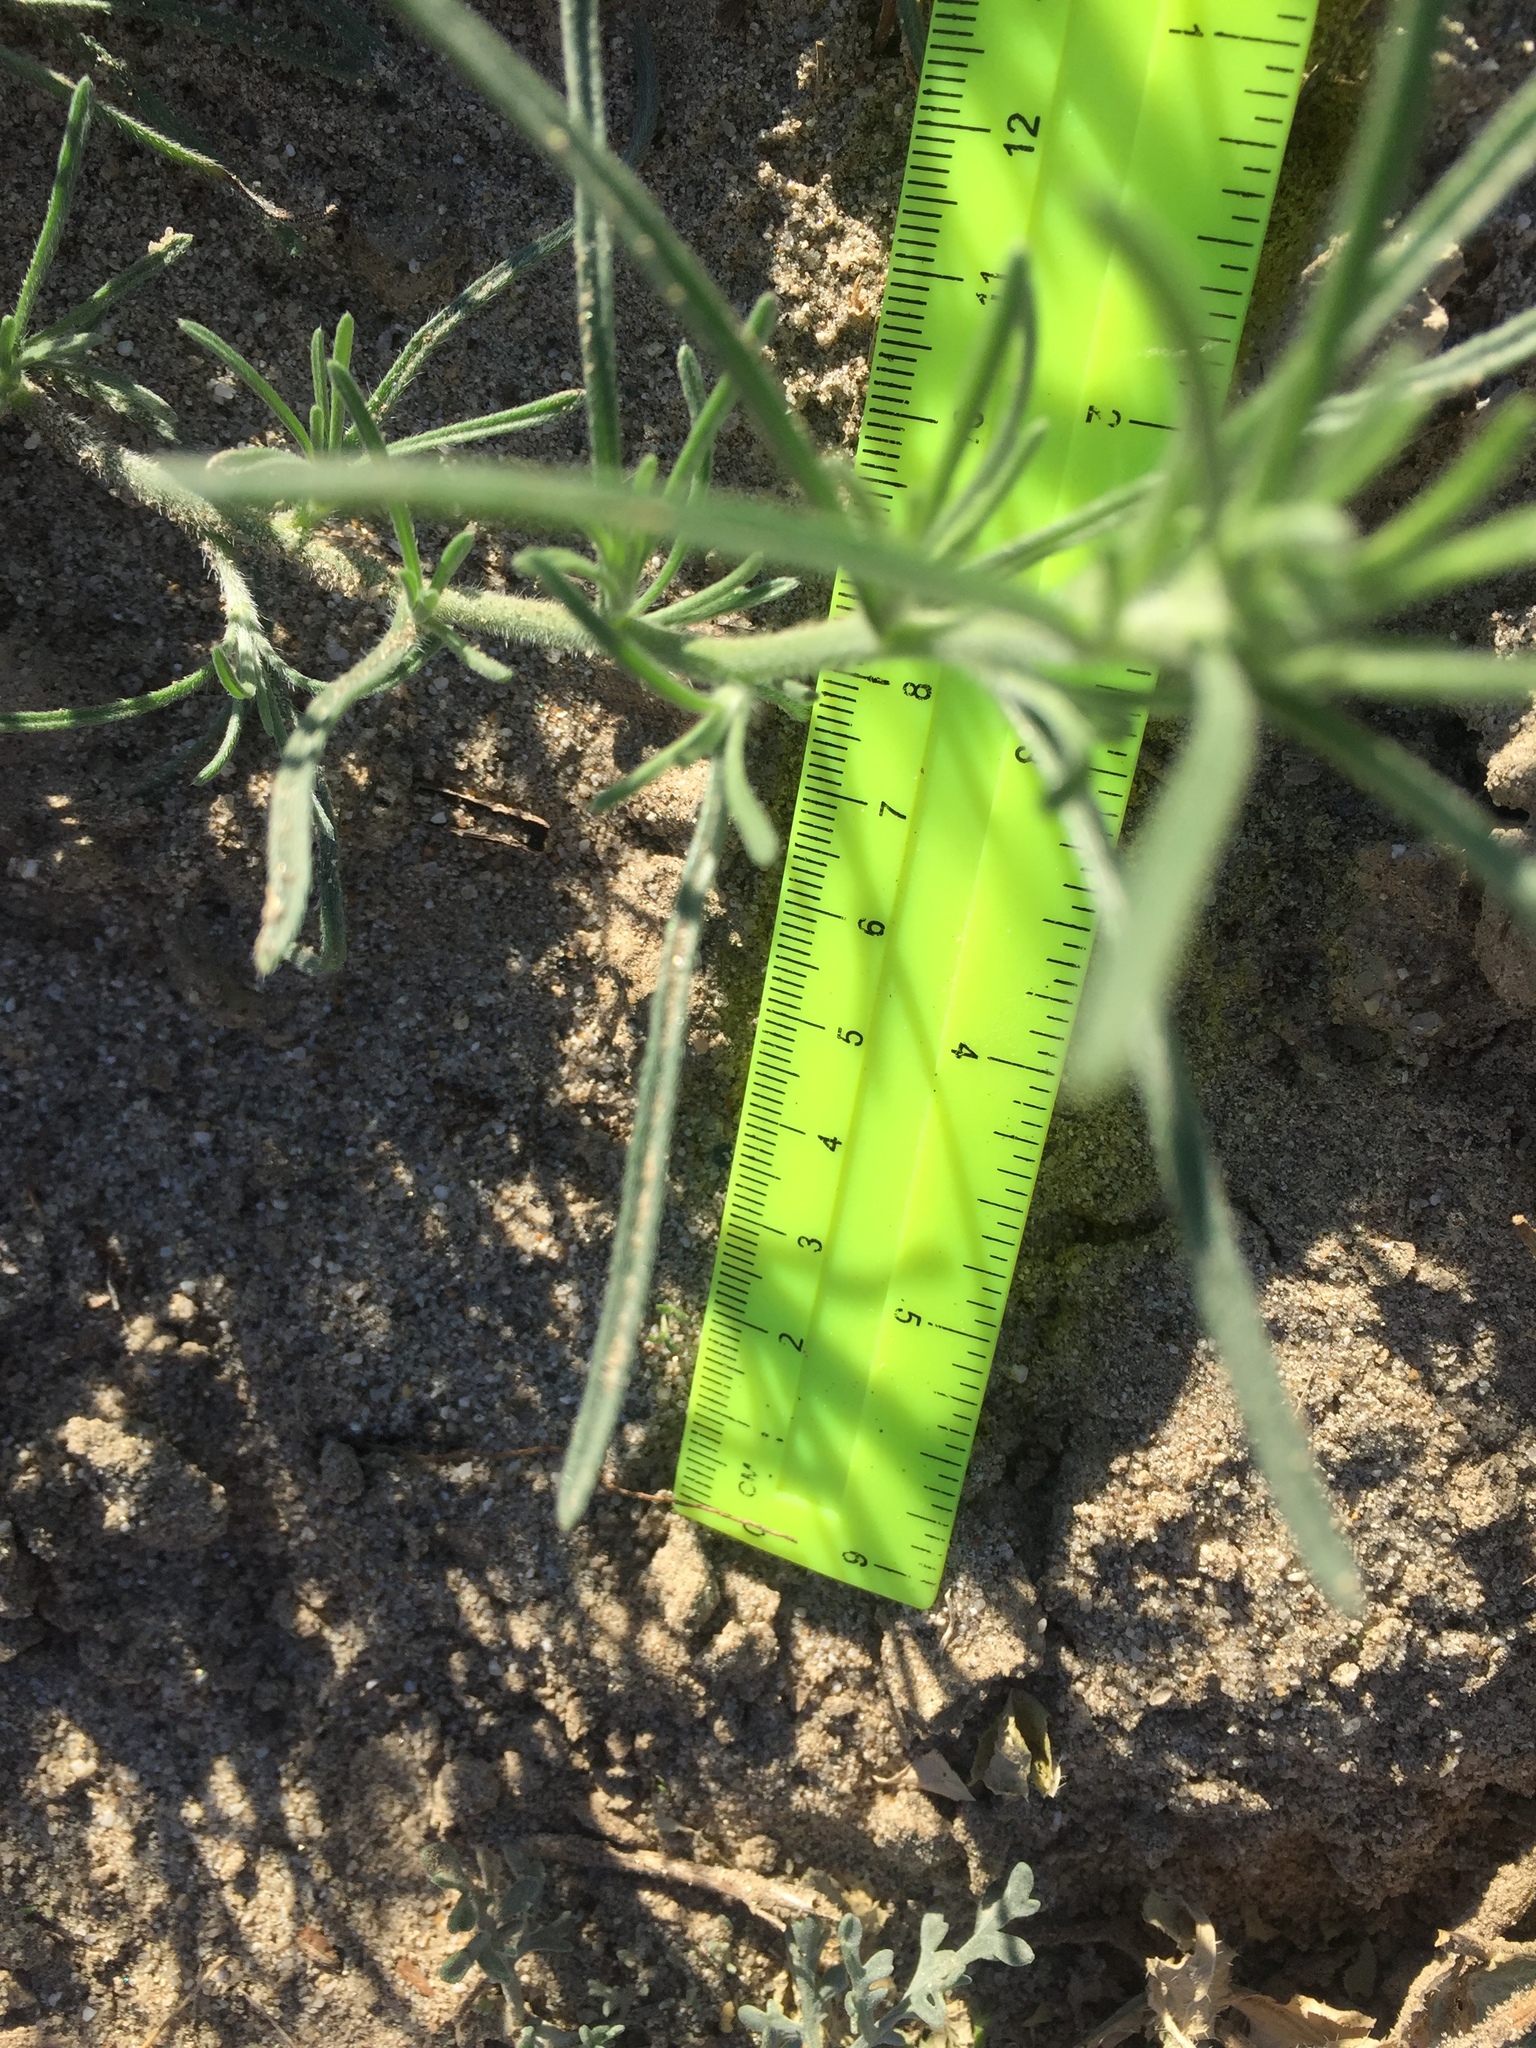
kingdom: Plantae
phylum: Tracheophyta
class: Magnoliopsida
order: Boraginales
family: Boraginaceae
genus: Johnstonella
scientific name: Johnstonella angustifolia
